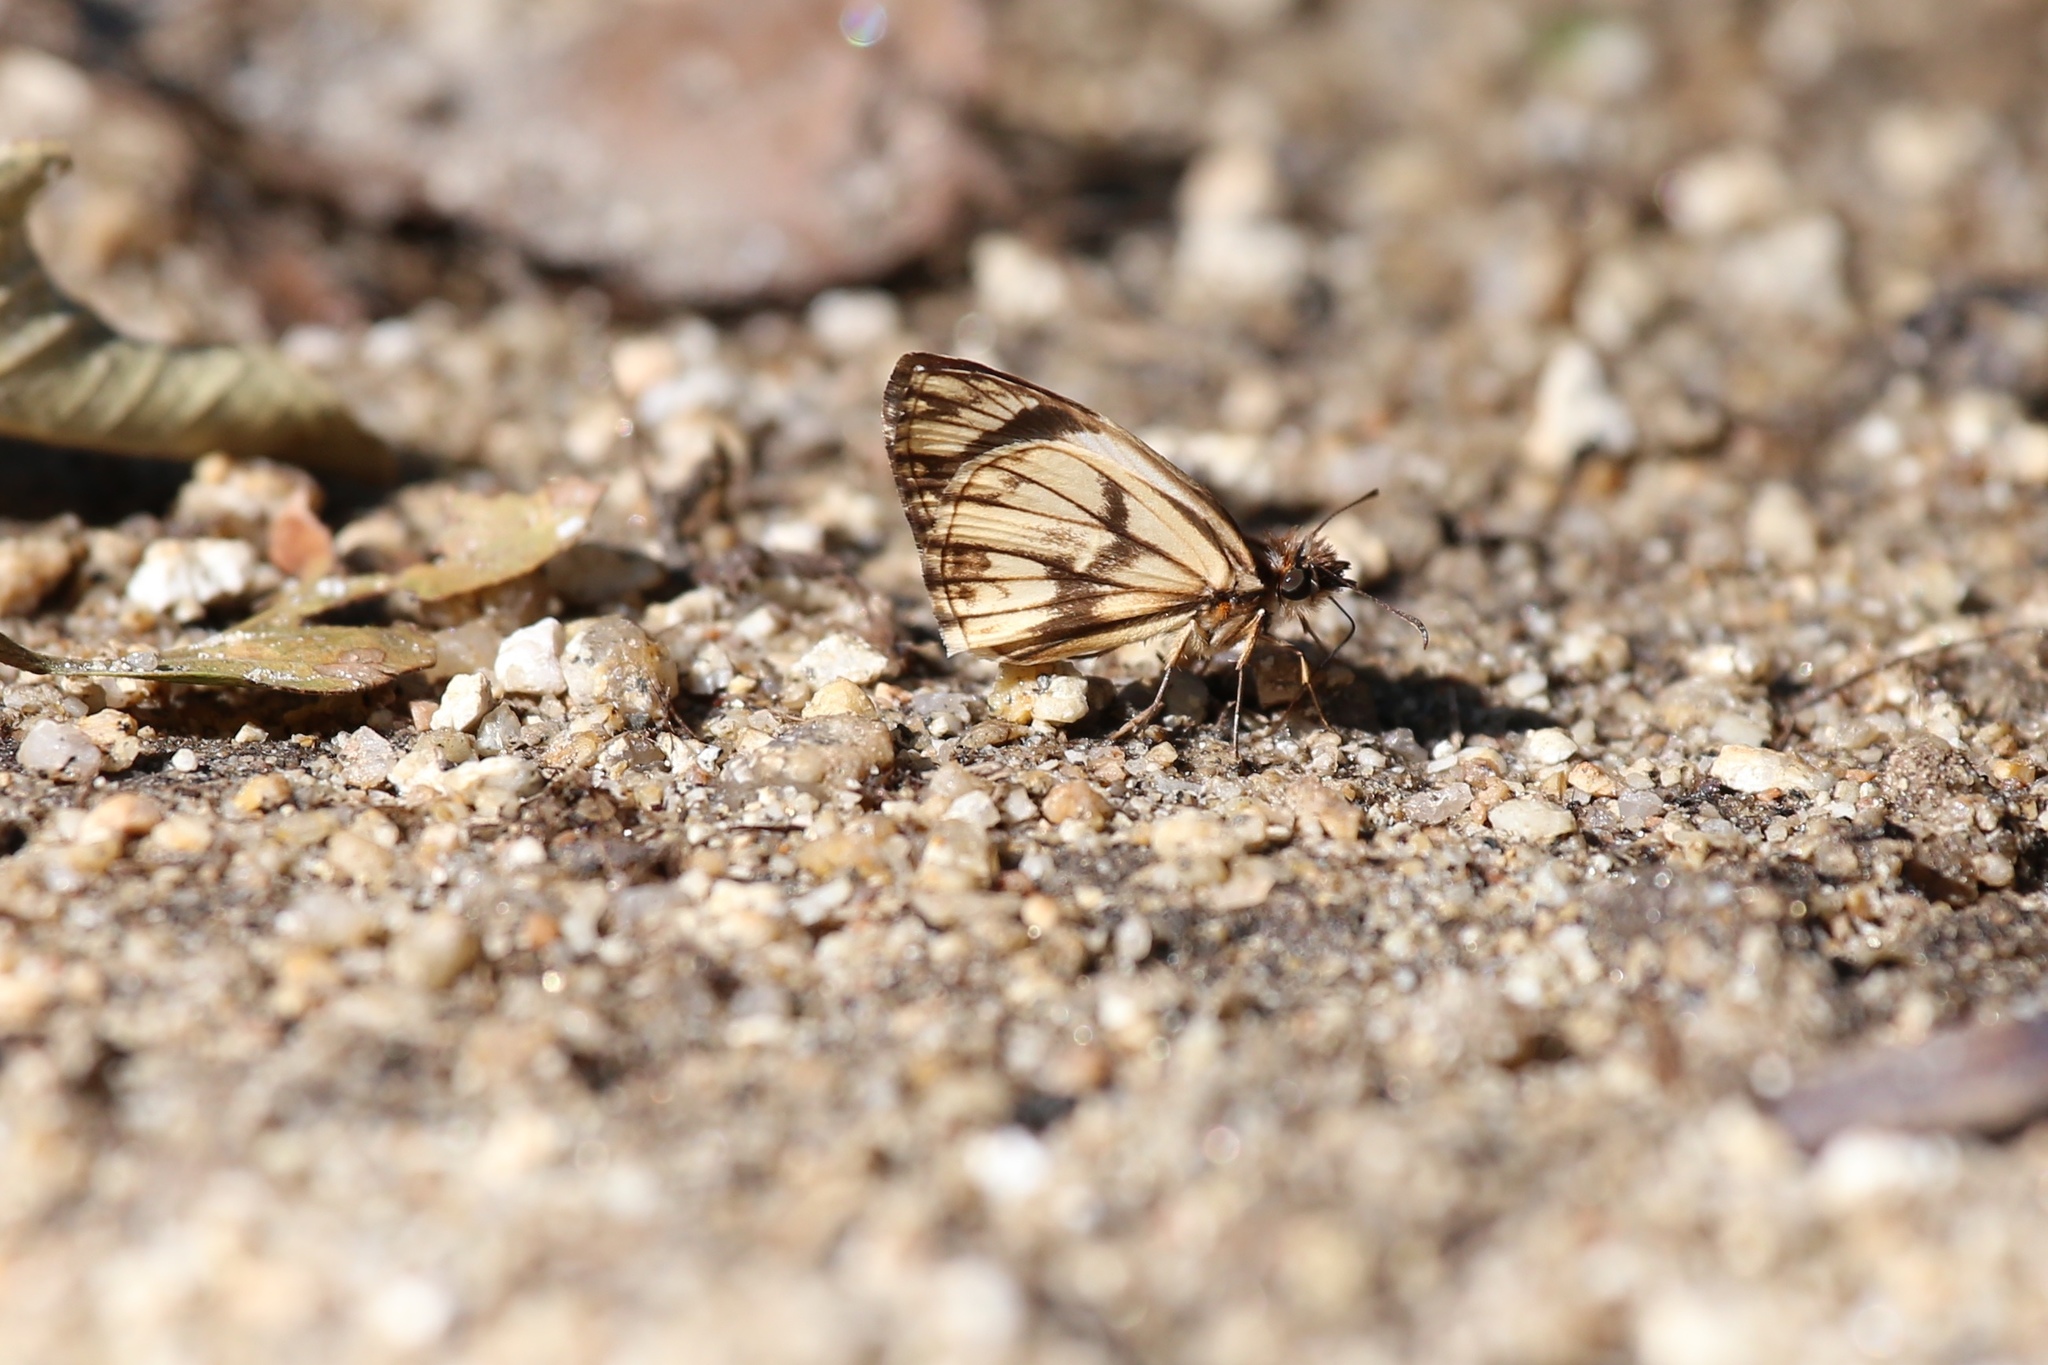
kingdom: Animalia
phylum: Arthropoda
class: Insecta
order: Lepidoptera
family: Hesperiidae
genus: Heliopetes
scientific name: Heliopetes alana
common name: Alana white-skipper
